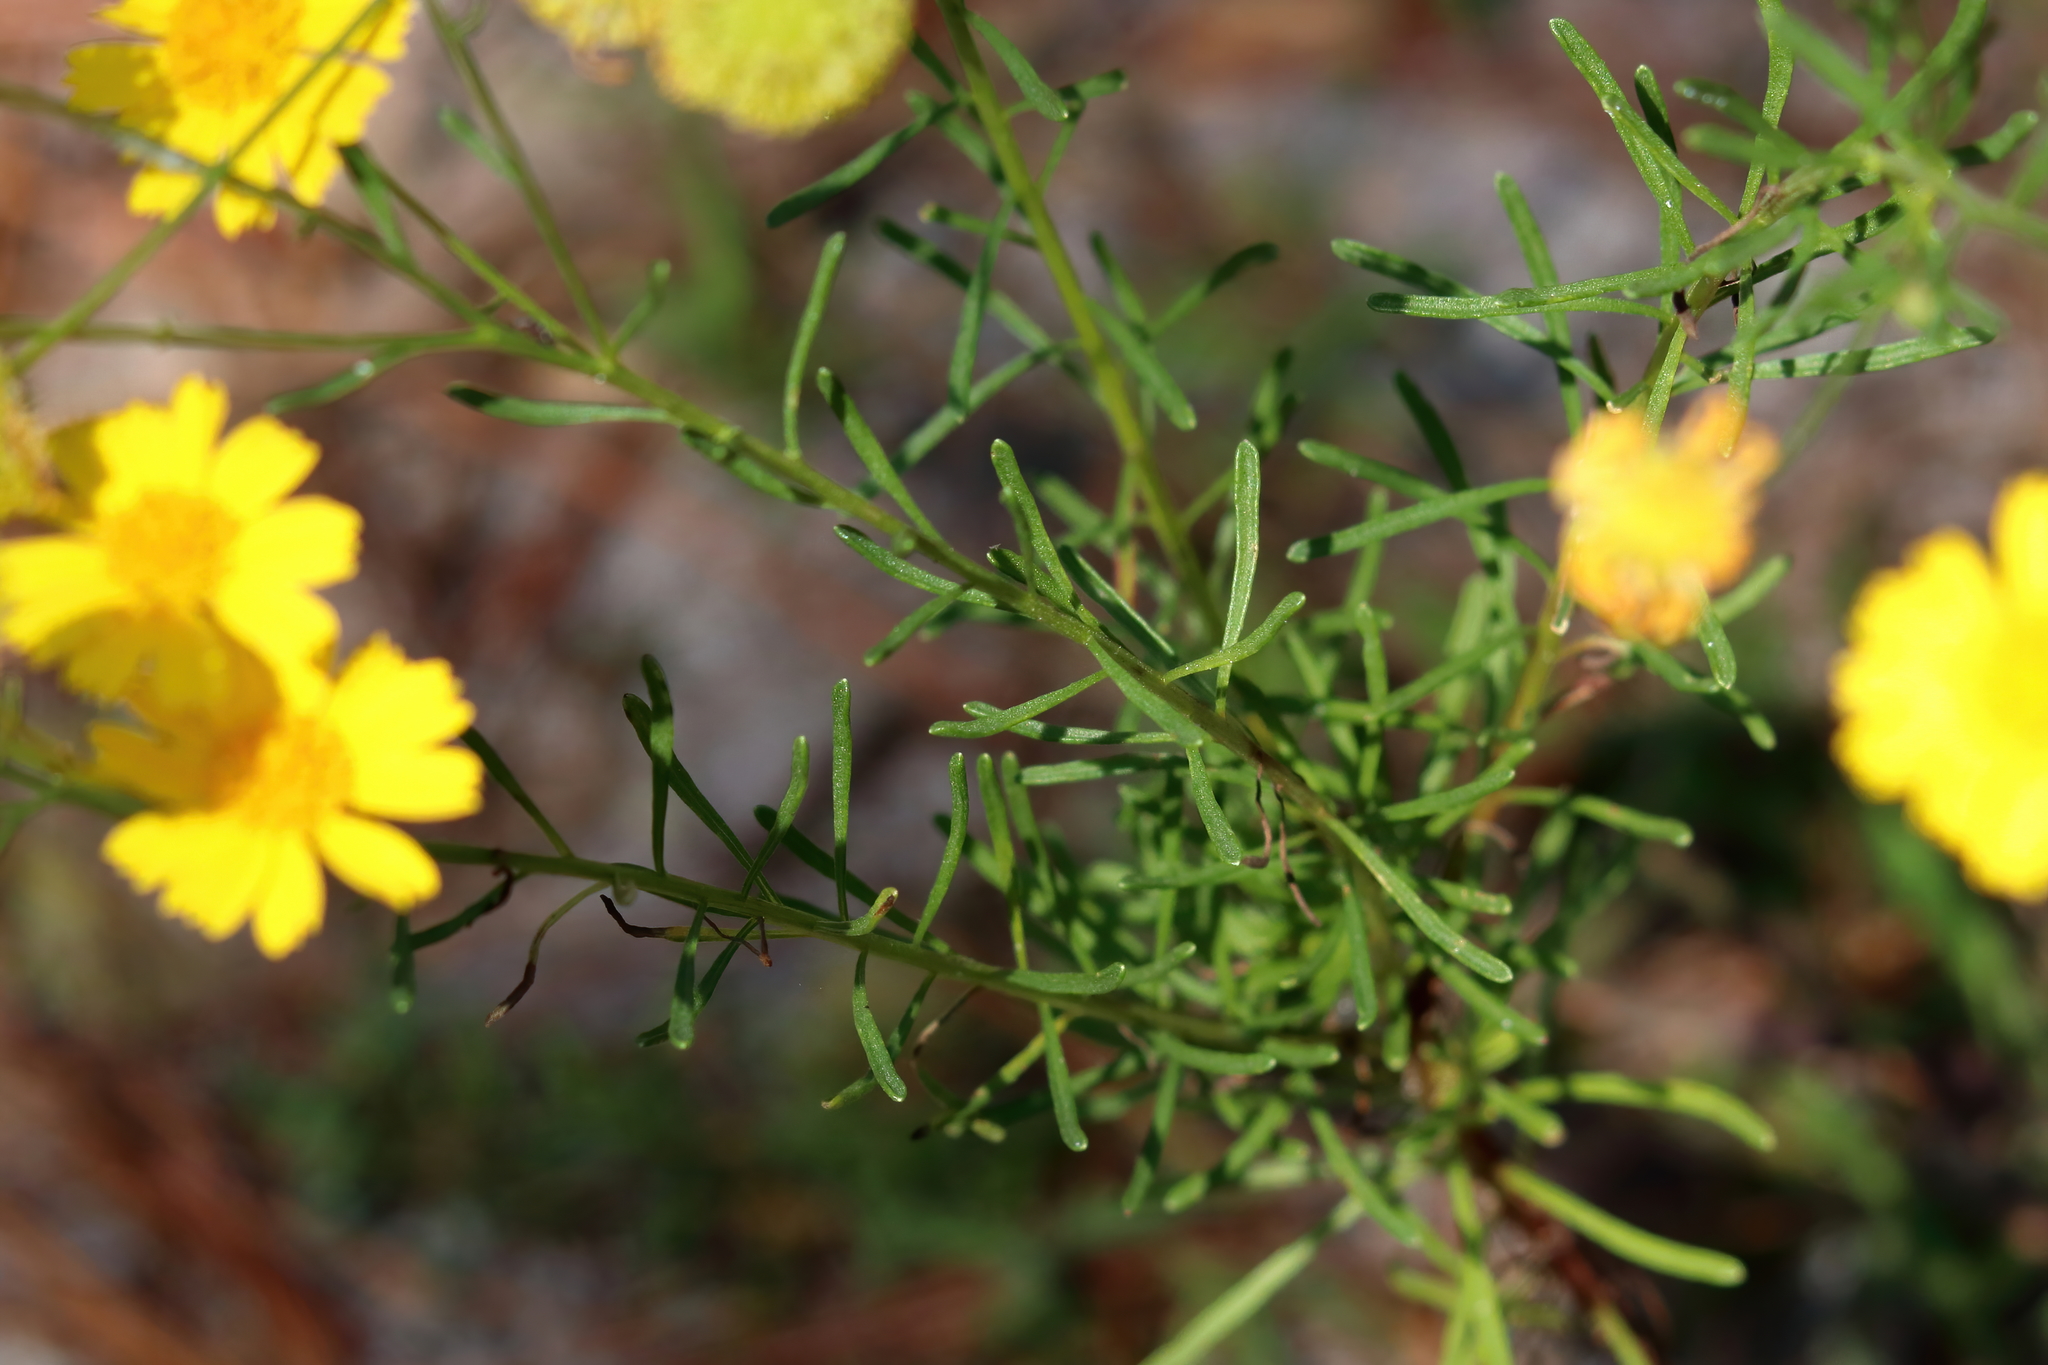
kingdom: Plantae
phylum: Tracheophyta
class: Magnoliopsida
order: Asterales
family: Asteraceae
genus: Helenium
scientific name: Helenium amarum
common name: Bitter sneezeweed
